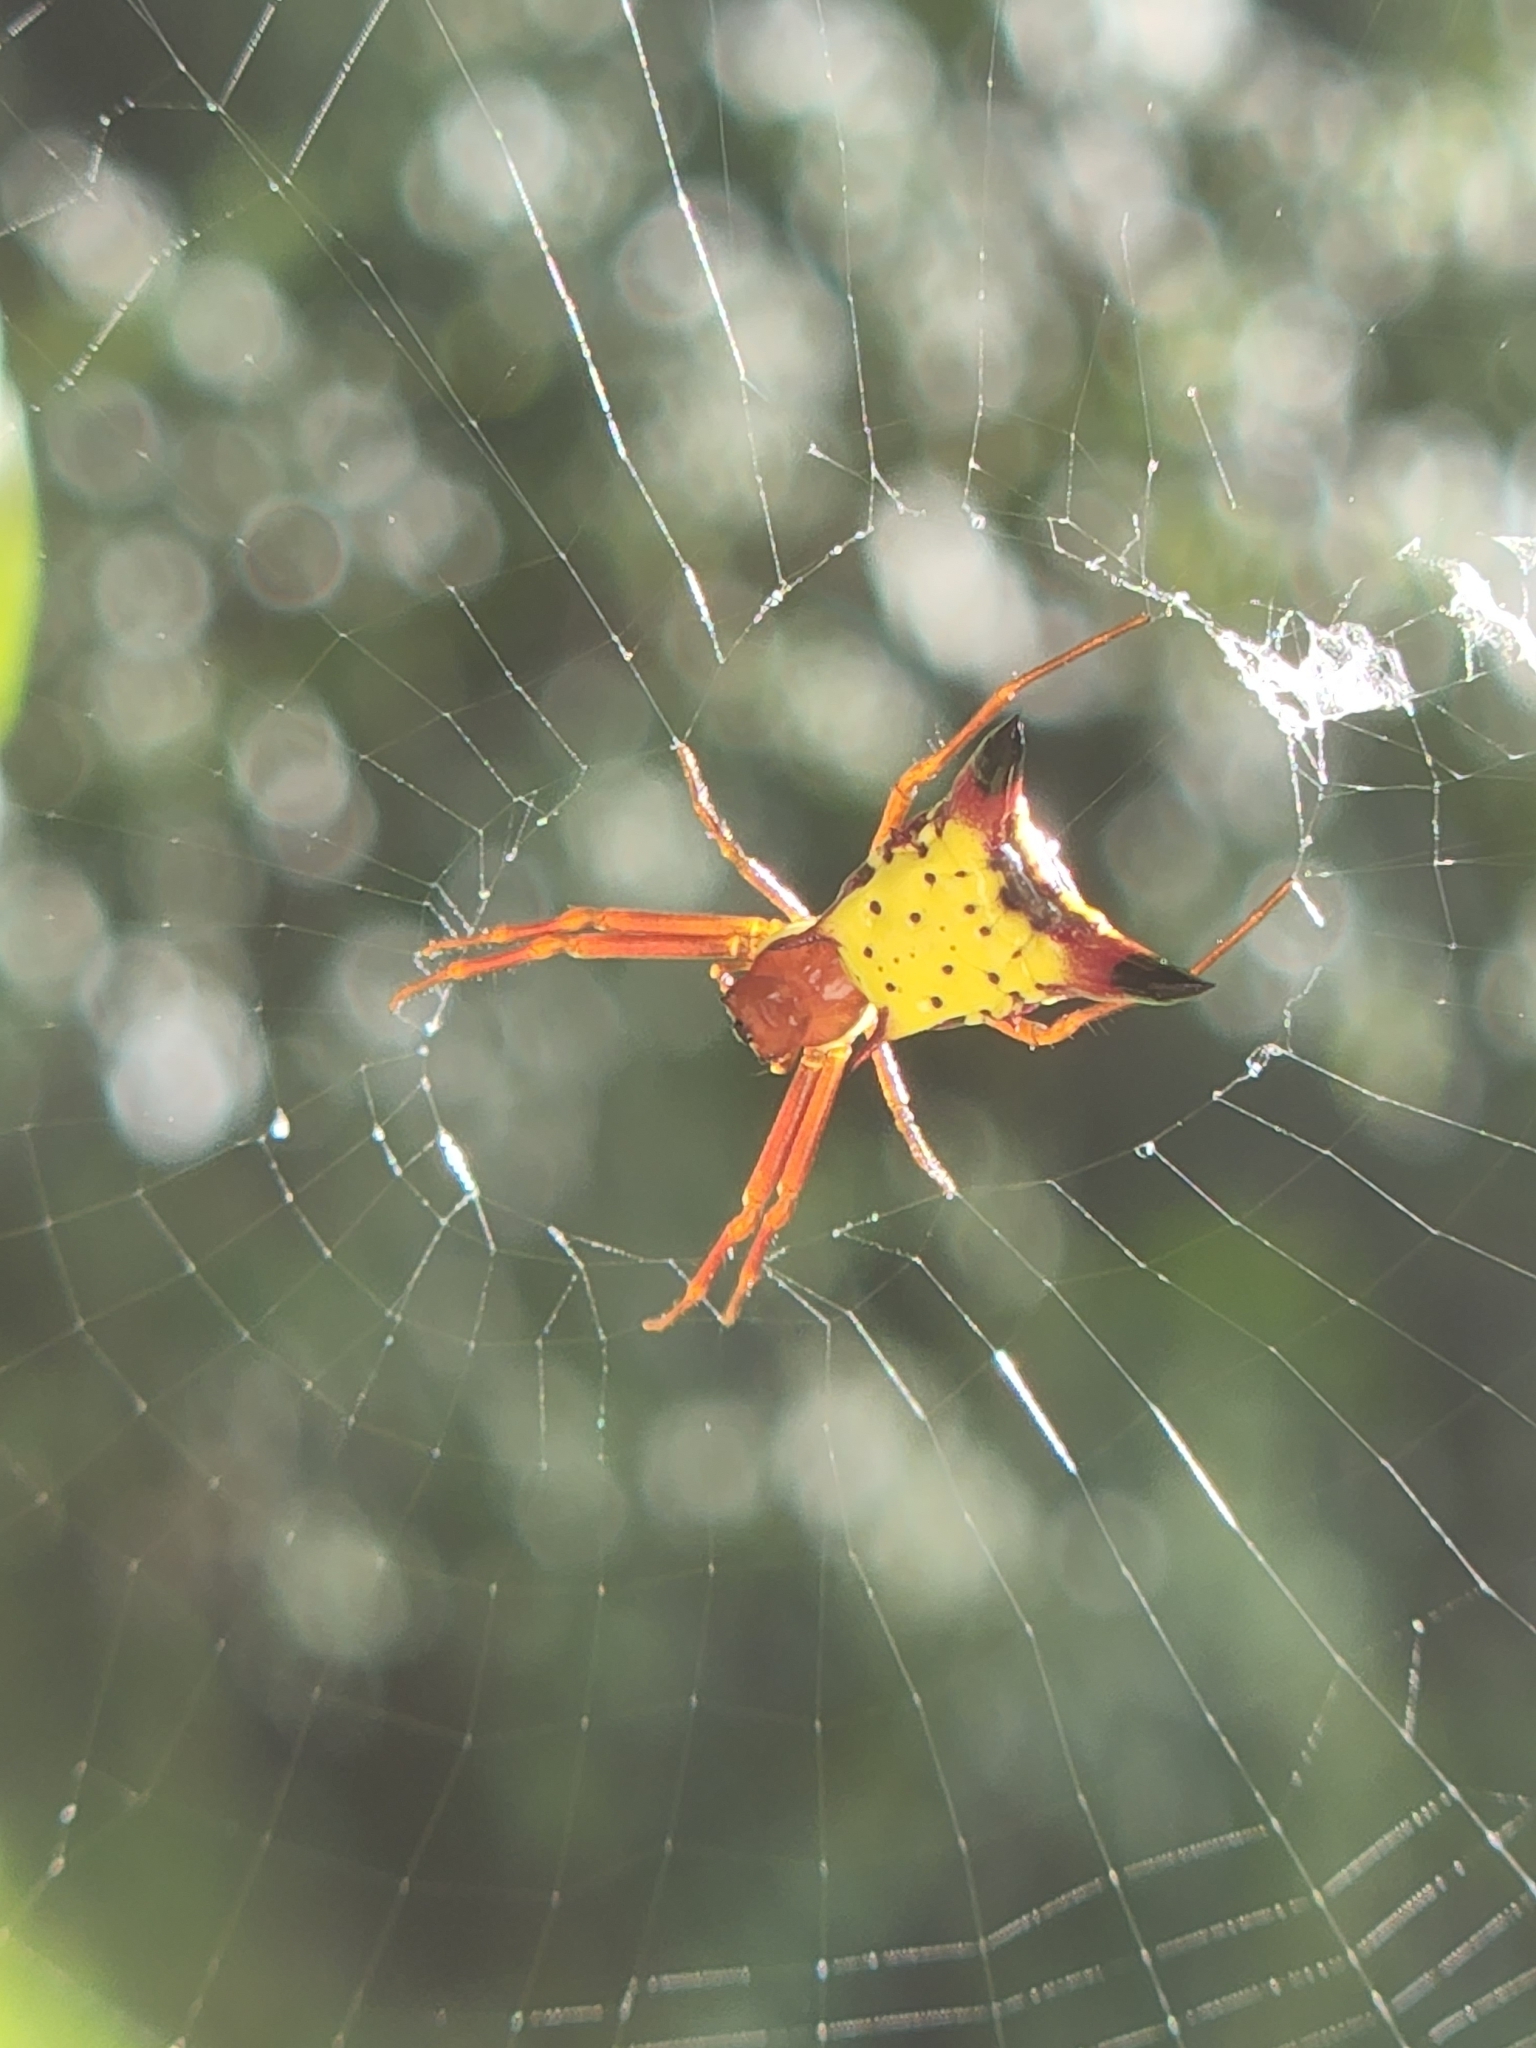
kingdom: Animalia
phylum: Arthropoda
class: Arachnida
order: Araneae
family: Araneidae
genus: Micrathena
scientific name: Micrathena sagittata
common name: Orb weavers
